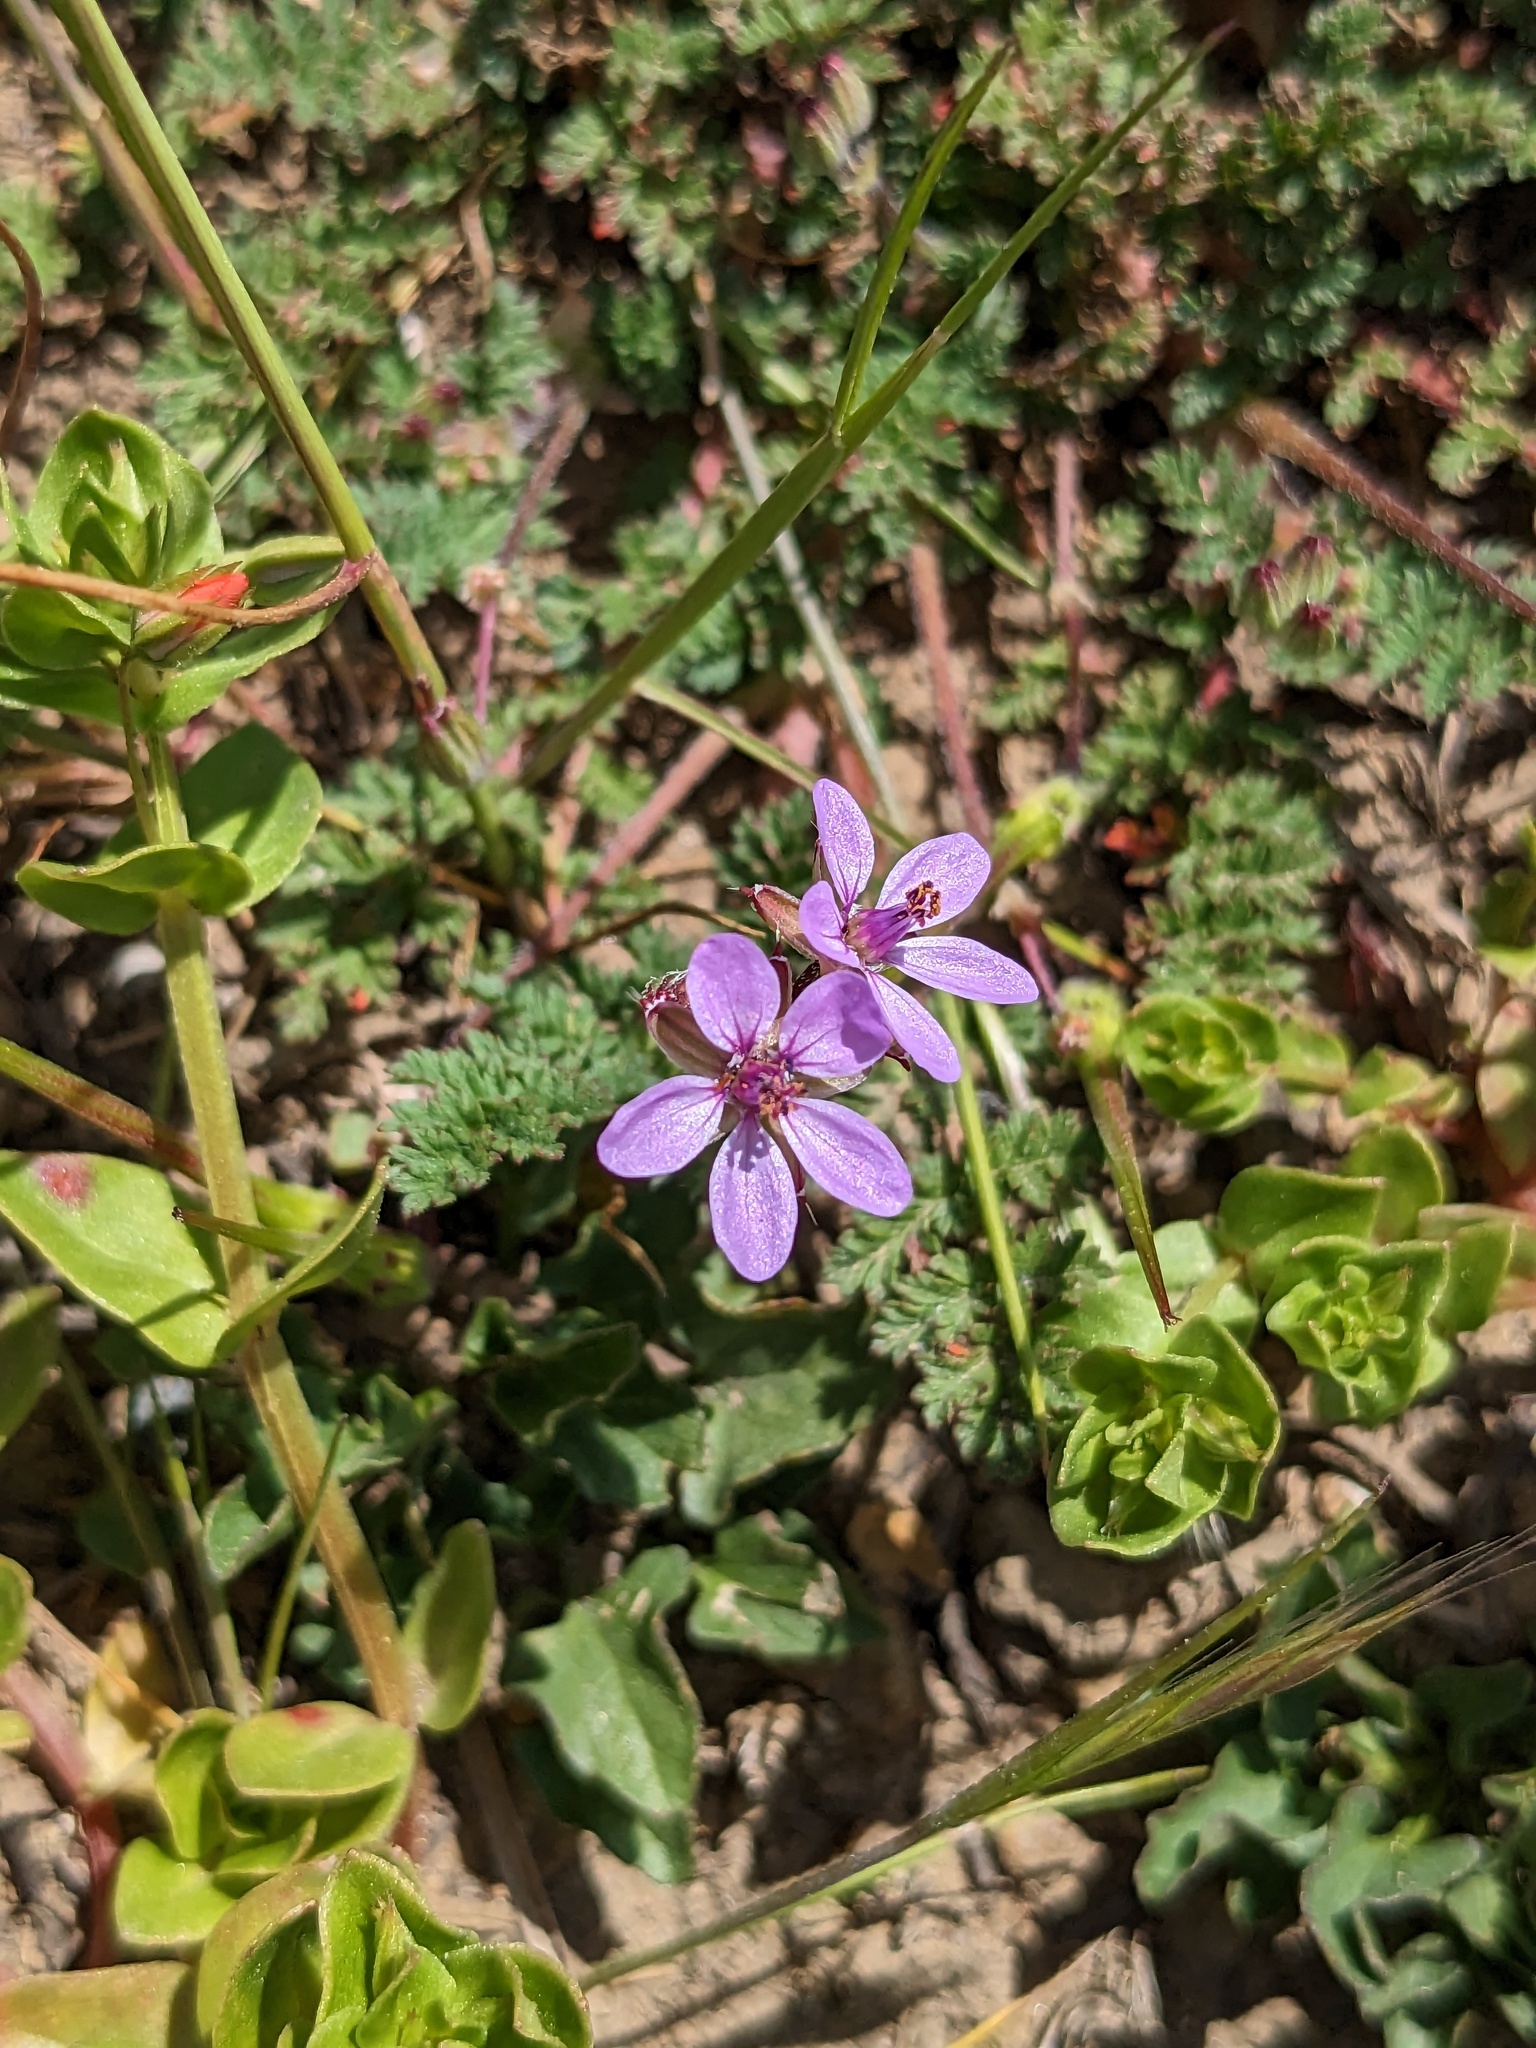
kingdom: Plantae
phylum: Tracheophyta
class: Magnoliopsida
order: Geraniales
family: Geraniaceae
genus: Erodium
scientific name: Erodium cicutarium
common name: Common stork's-bill
